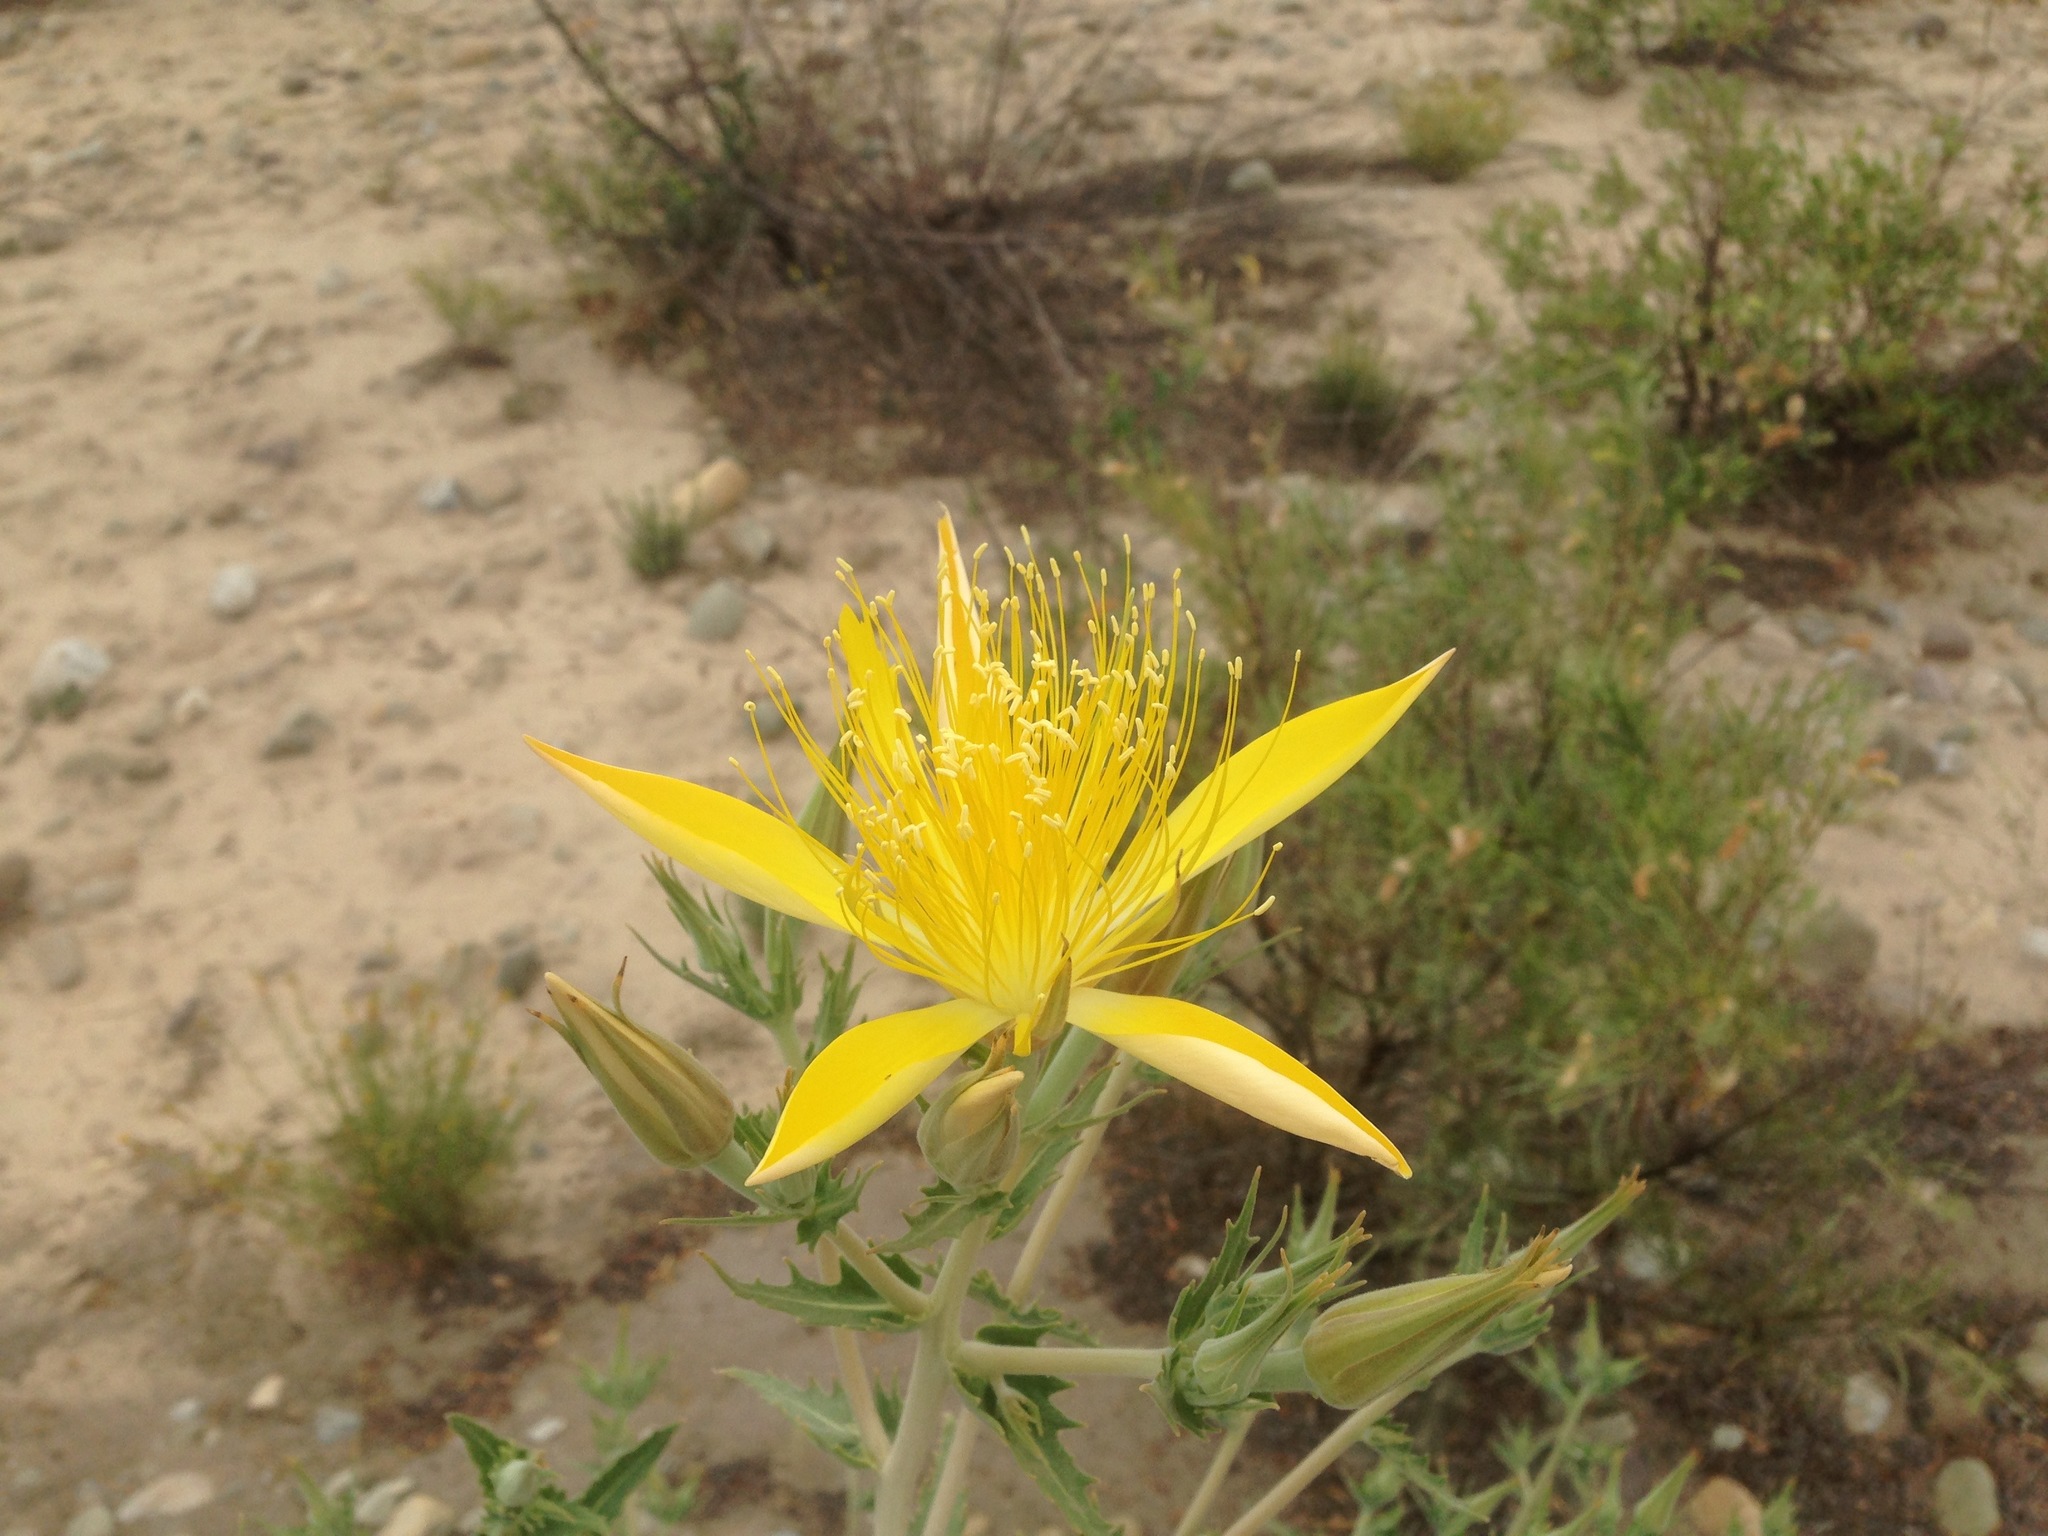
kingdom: Plantae
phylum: Tracheophyta
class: Magnoliopsida
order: Cornales
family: Loasaceae
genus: Mentzelia
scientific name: Mentzelia laevicaulis
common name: Smooth-stem blazingstar
